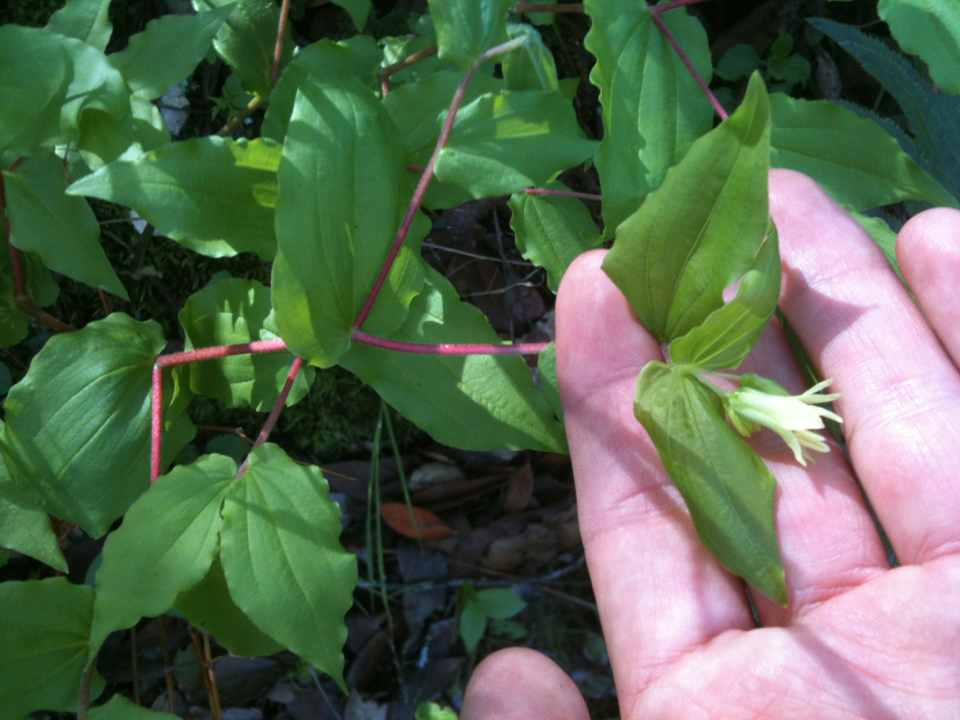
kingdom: Plantae
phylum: Tracheophyta
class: Liliopsida
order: Liliales
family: Liliaceae
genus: Prosartes
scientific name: Prosartes hookeri
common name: Fairy-bells
